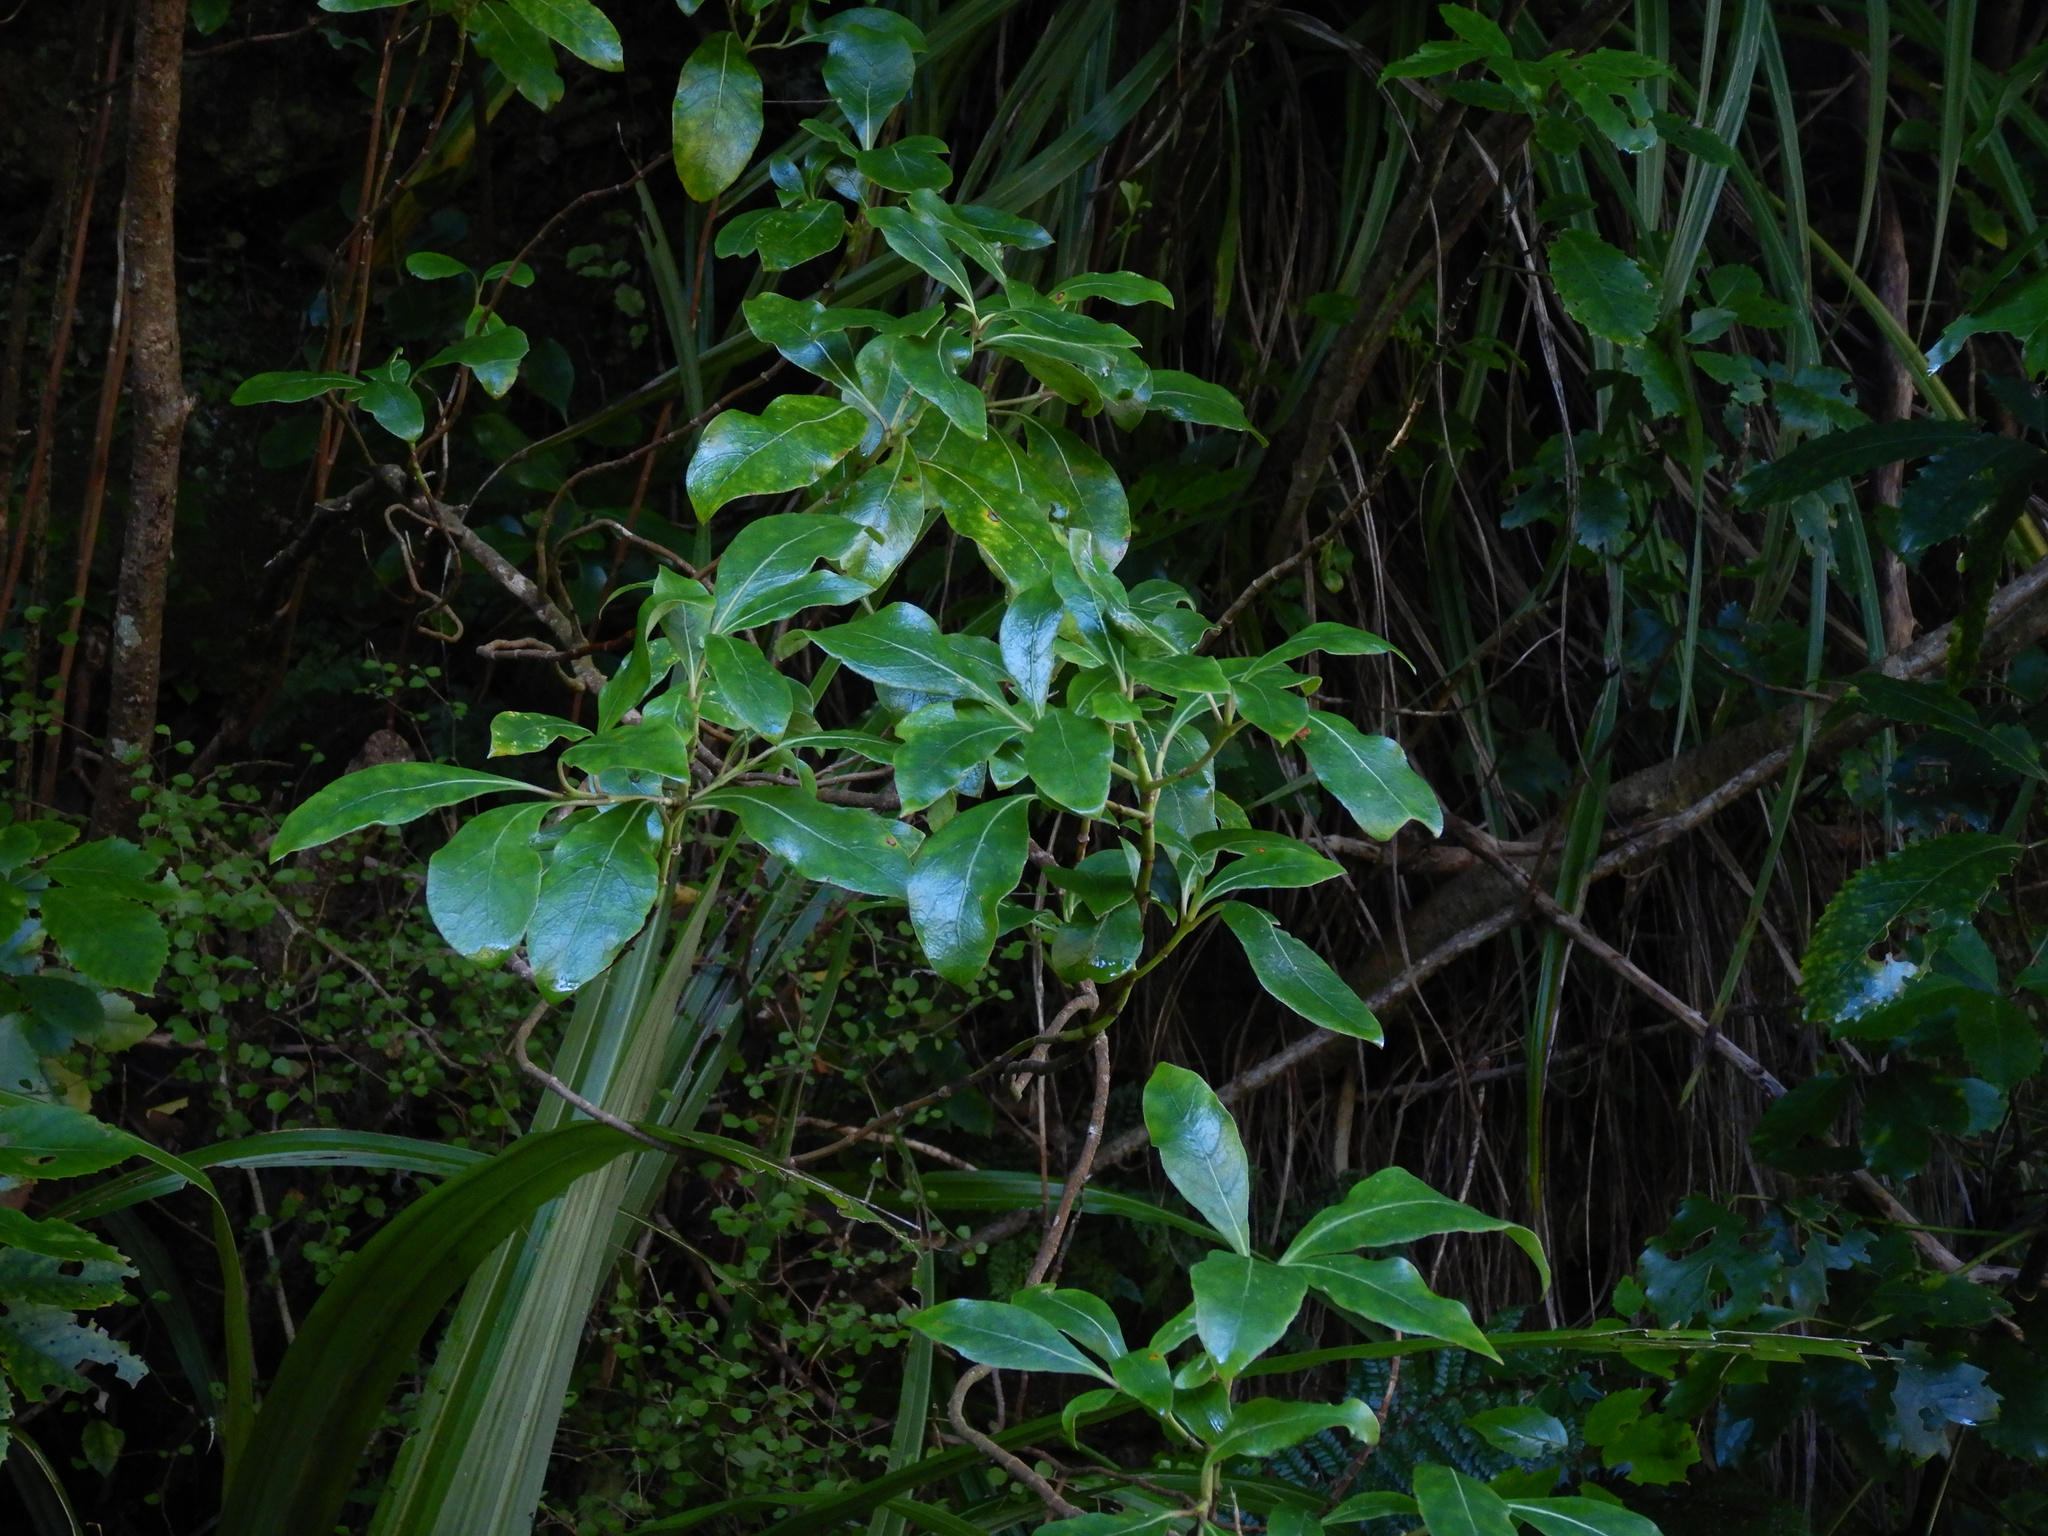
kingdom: Plantae
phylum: Tracheophyta
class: Magnoliopsida
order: Gentianales
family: Rubiaceae
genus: Coprosma
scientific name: Coprosma lucida
